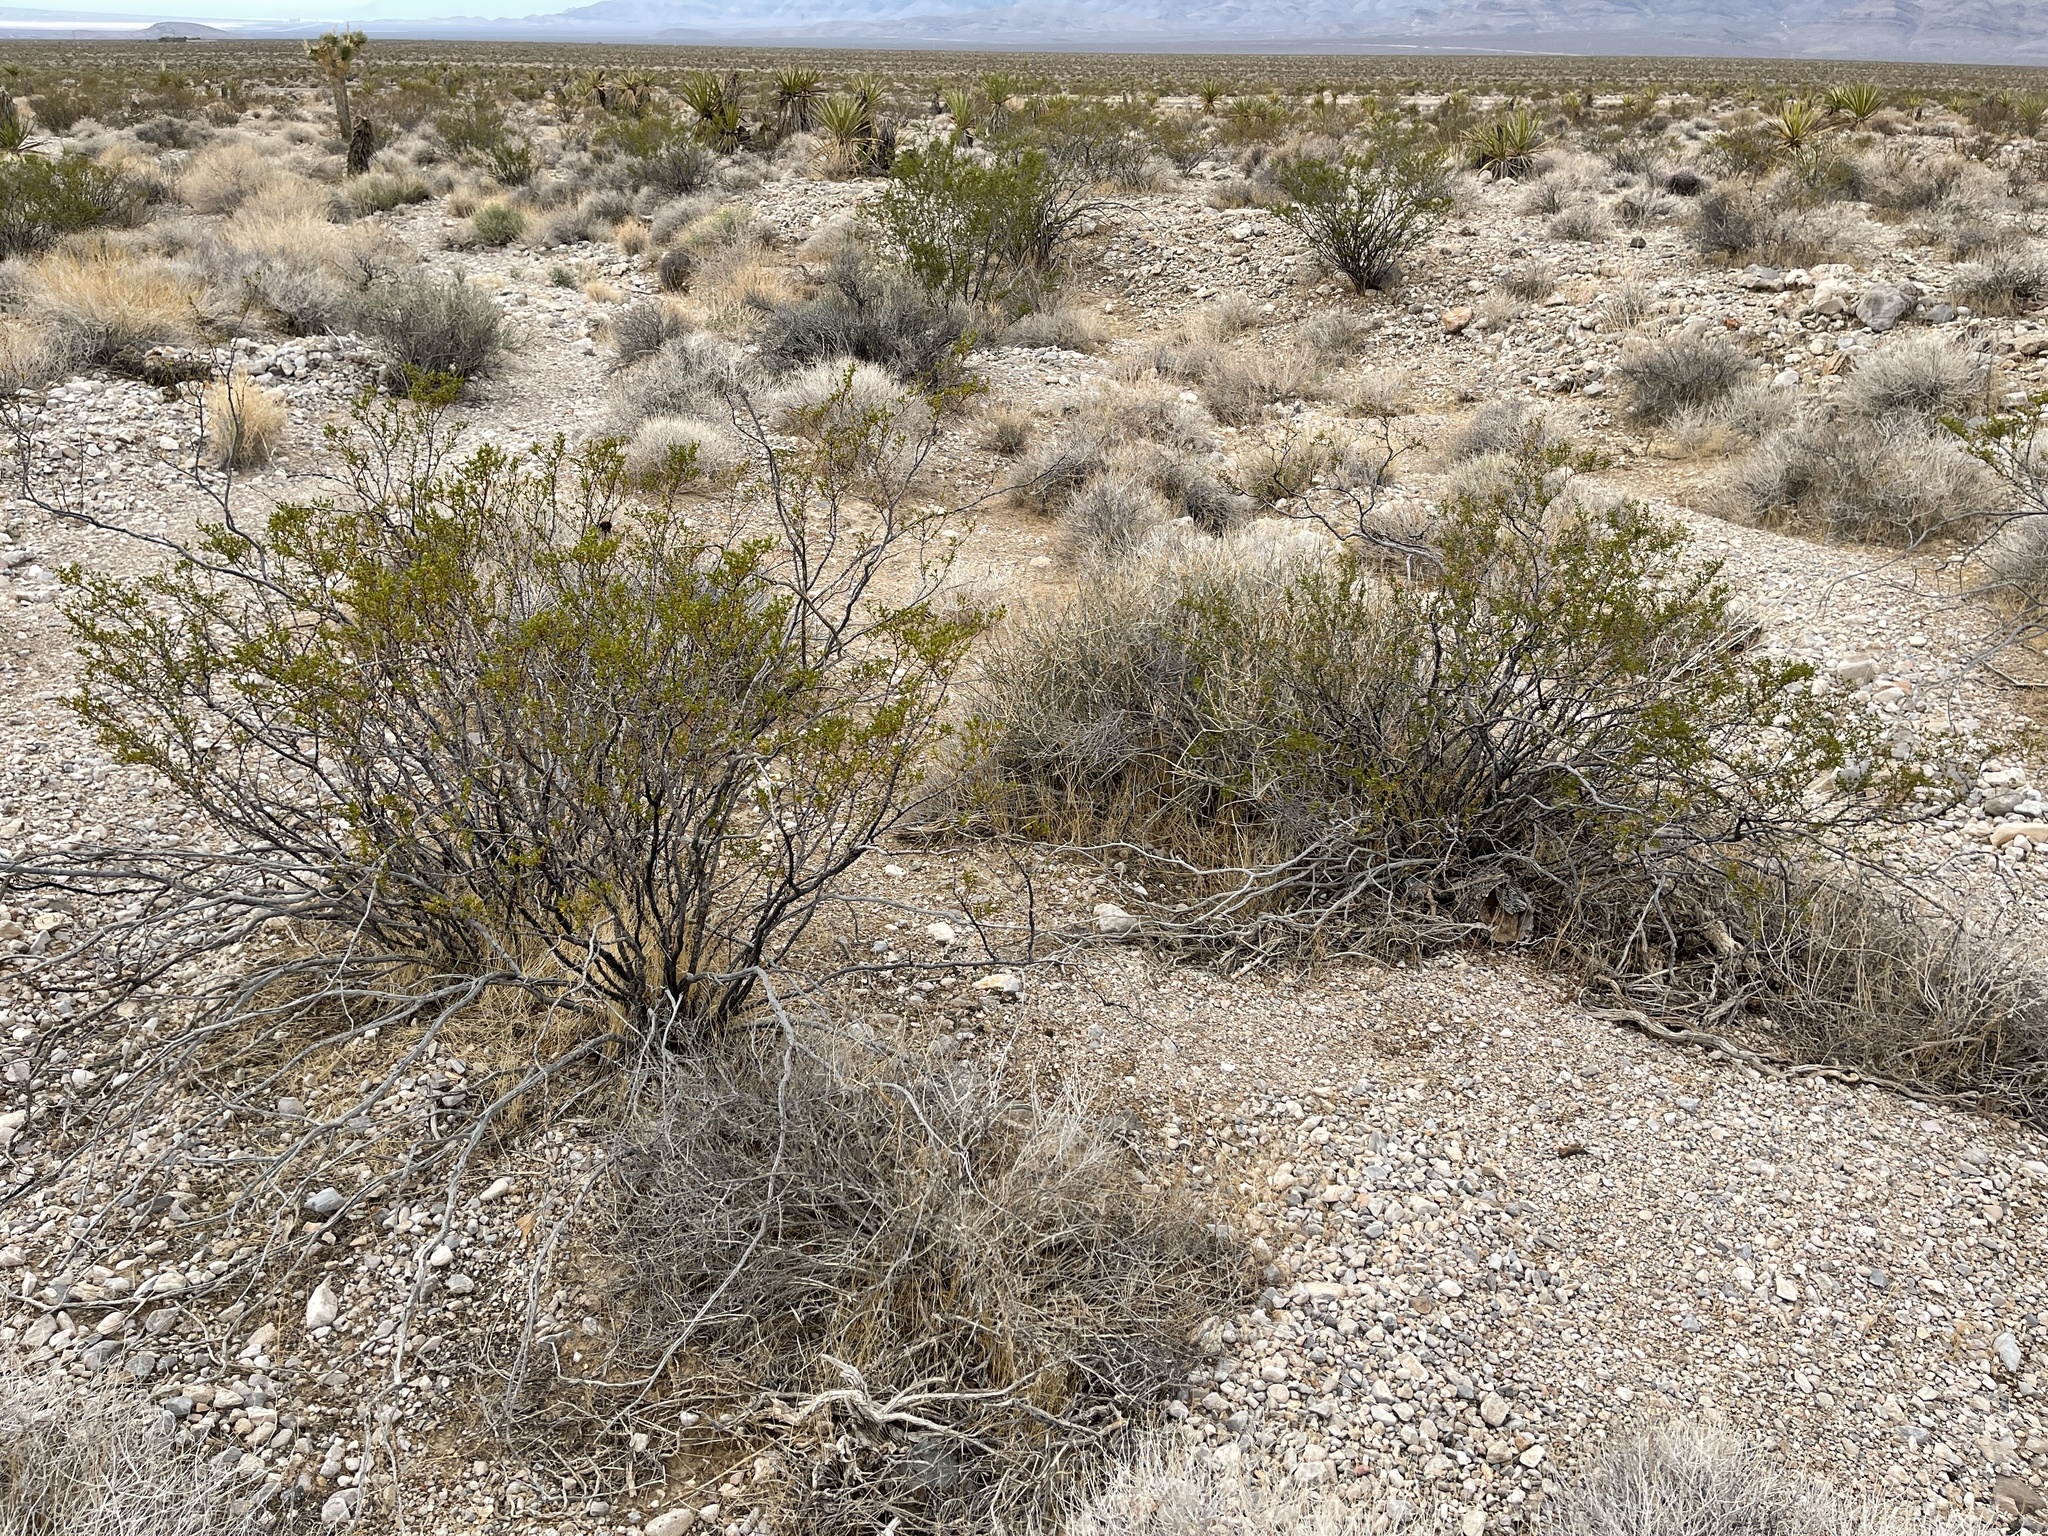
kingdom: Plantae
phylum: Tracheophyta
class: Magnoliopsida
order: Zygophyllales
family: Zygophyllaceae
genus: Larrea
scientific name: Larrea tridentata
